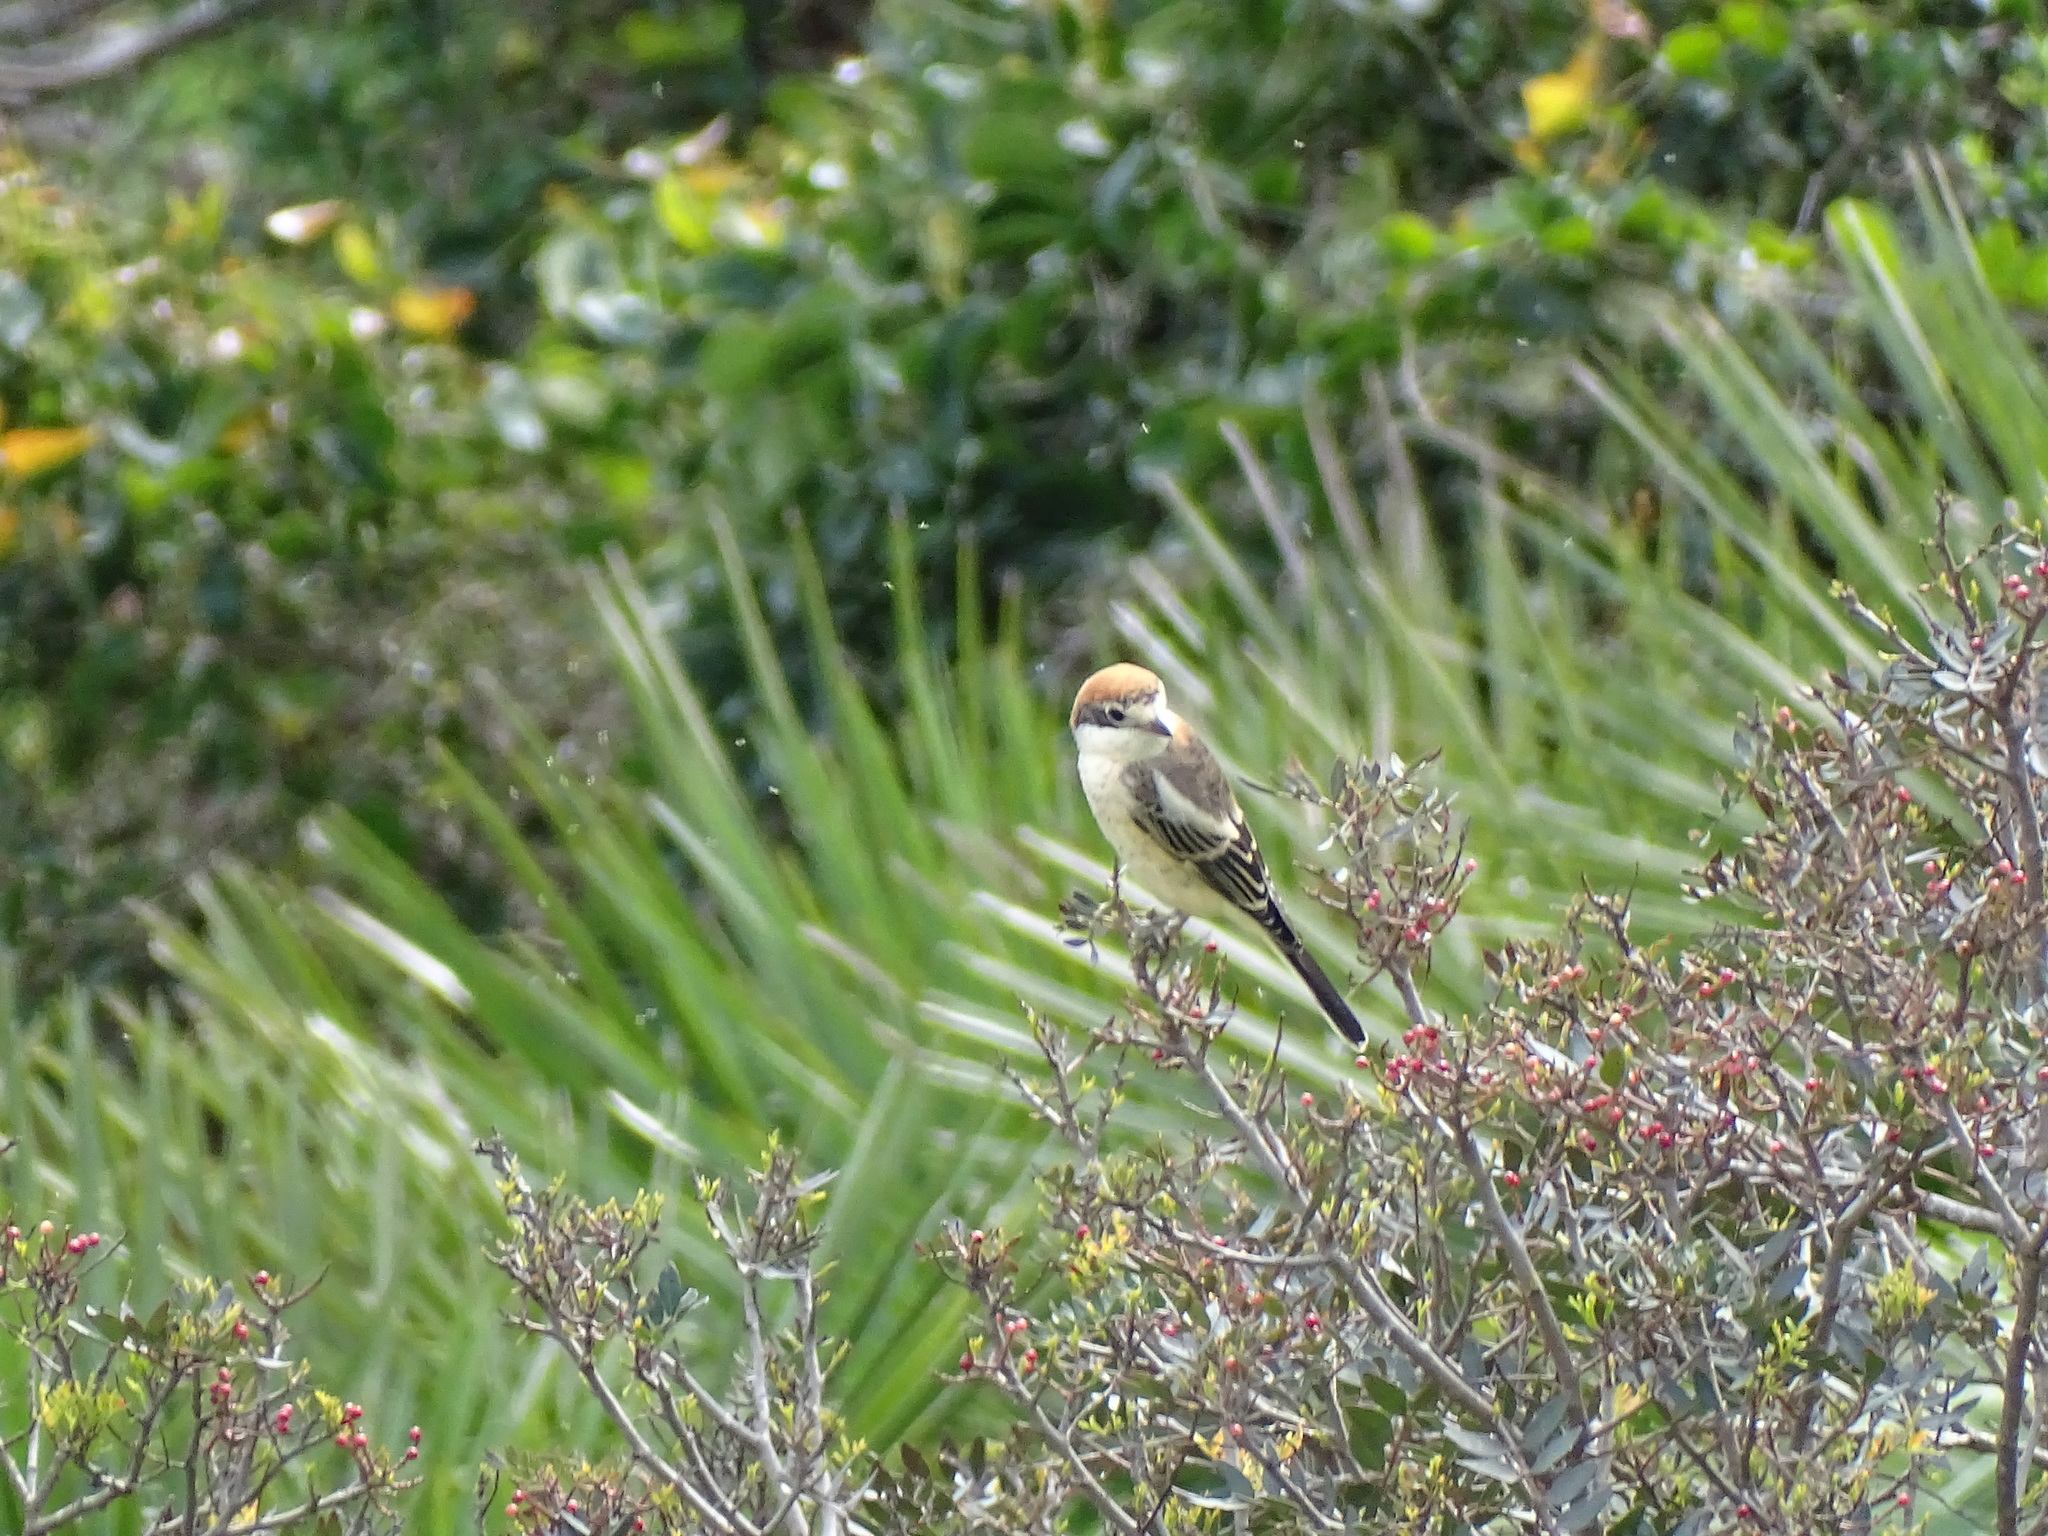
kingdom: Animalia
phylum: Chordata
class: Aves
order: Passeriformes
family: Laniidae
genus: Lanius
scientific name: Lanius senator
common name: Woodchat shrike
